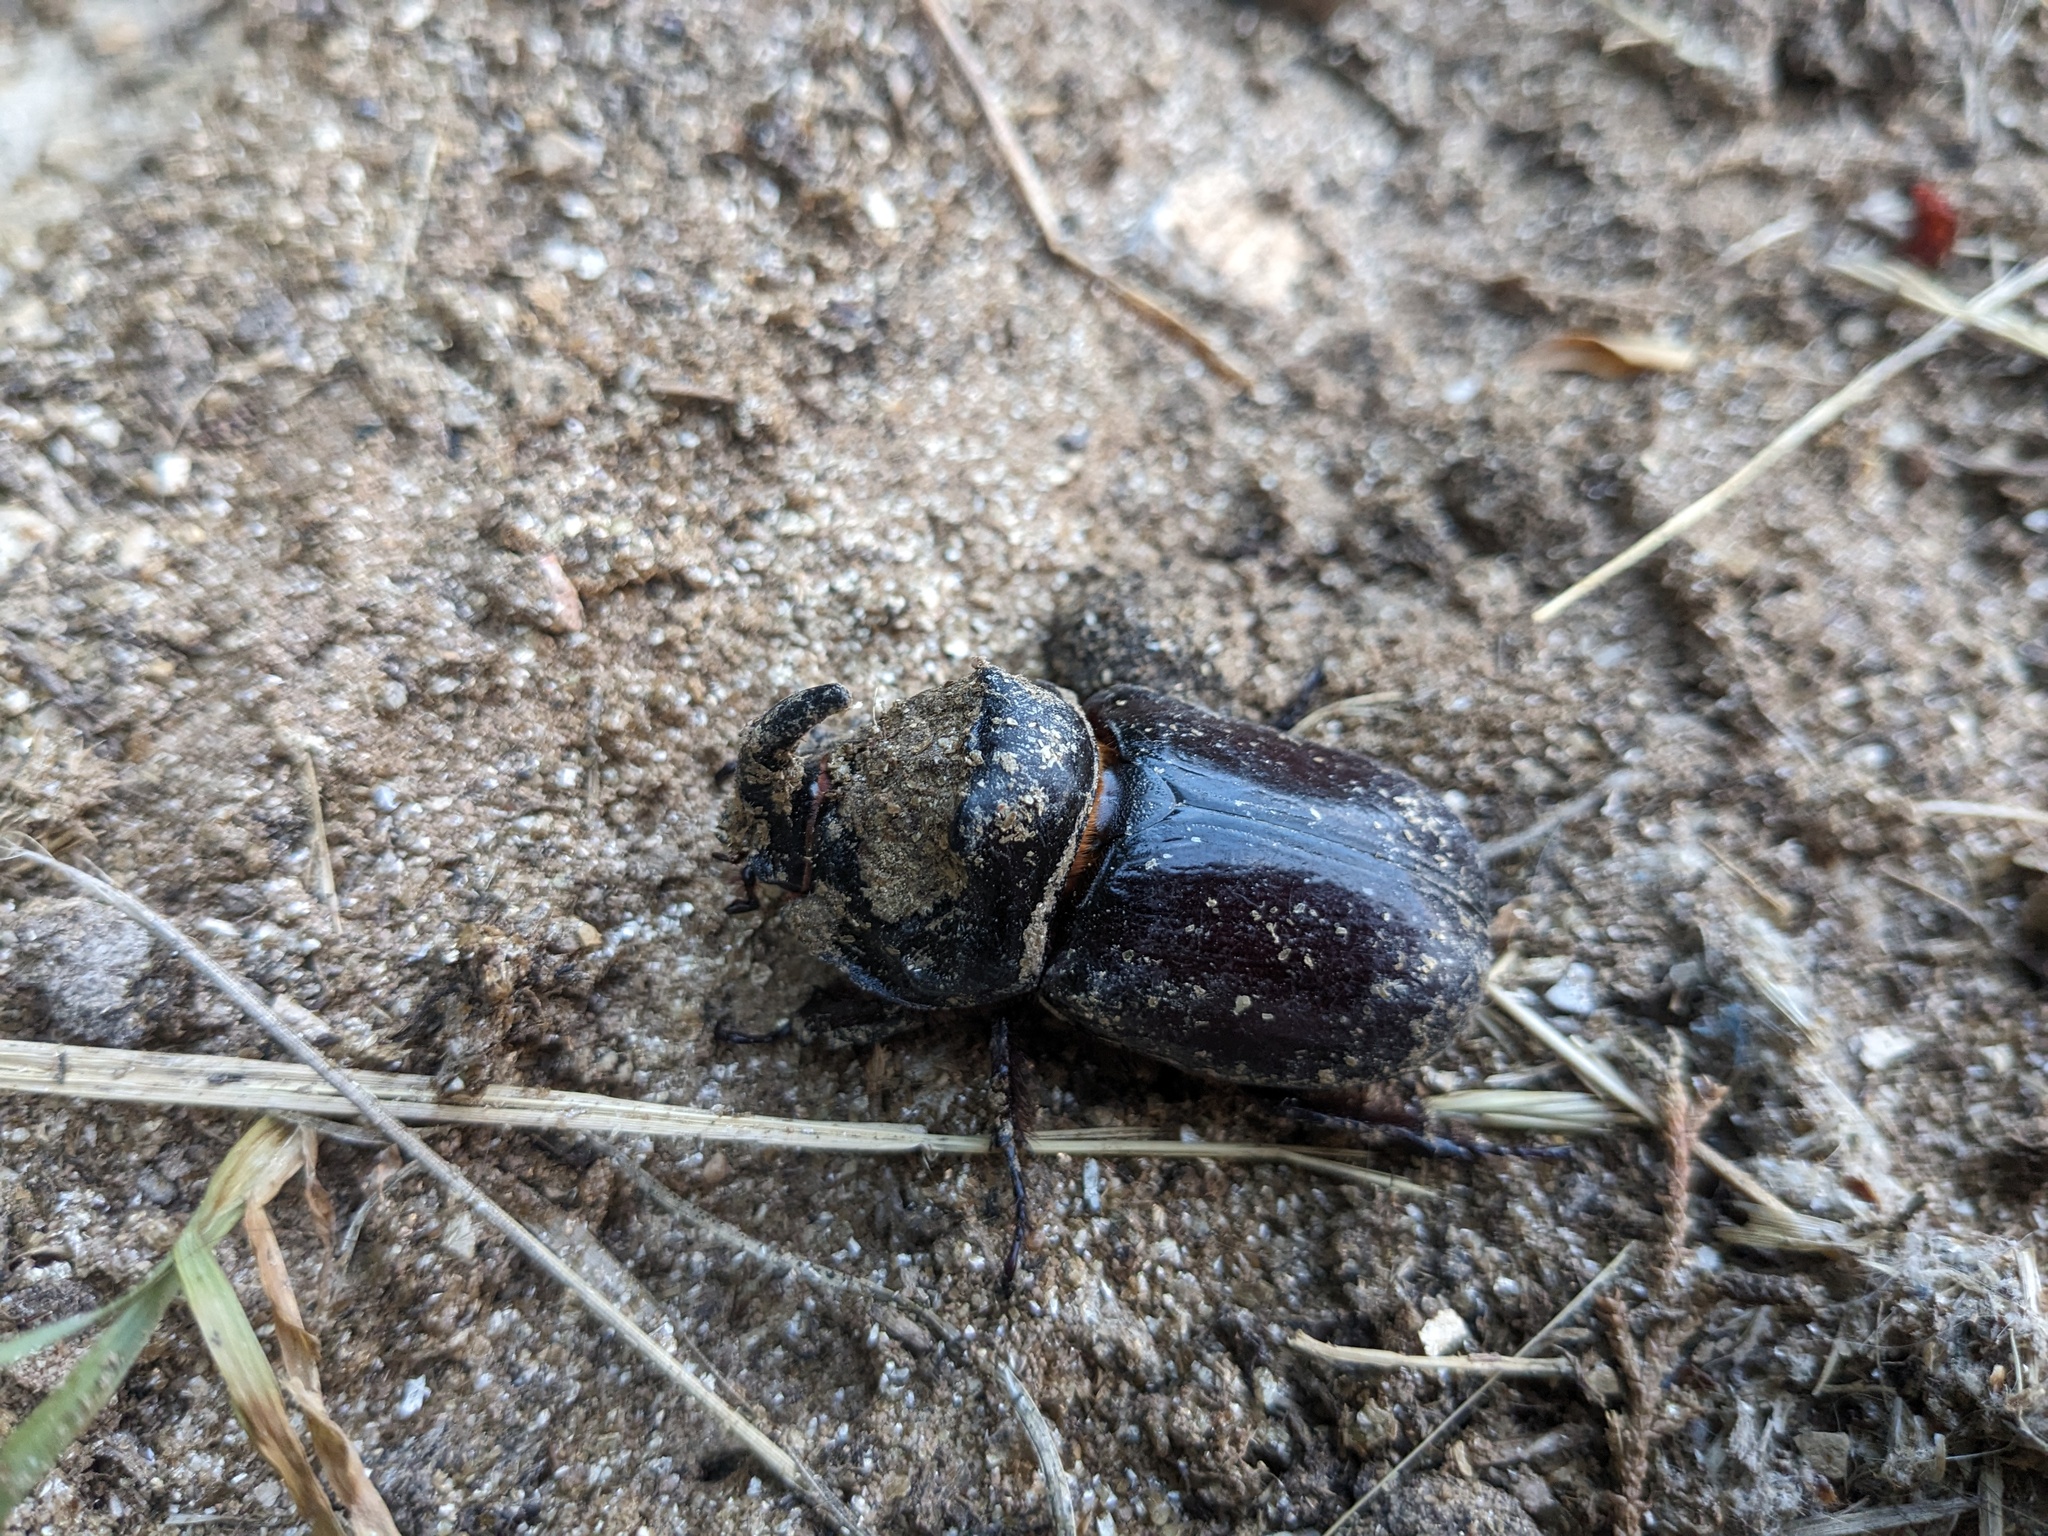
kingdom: Animalia
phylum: Arthropoda
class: Insecta
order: Coleoptera
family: Scarabaeidae
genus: Oryctes
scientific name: Oryctes nasicornis
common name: European rhinoceros beetle
